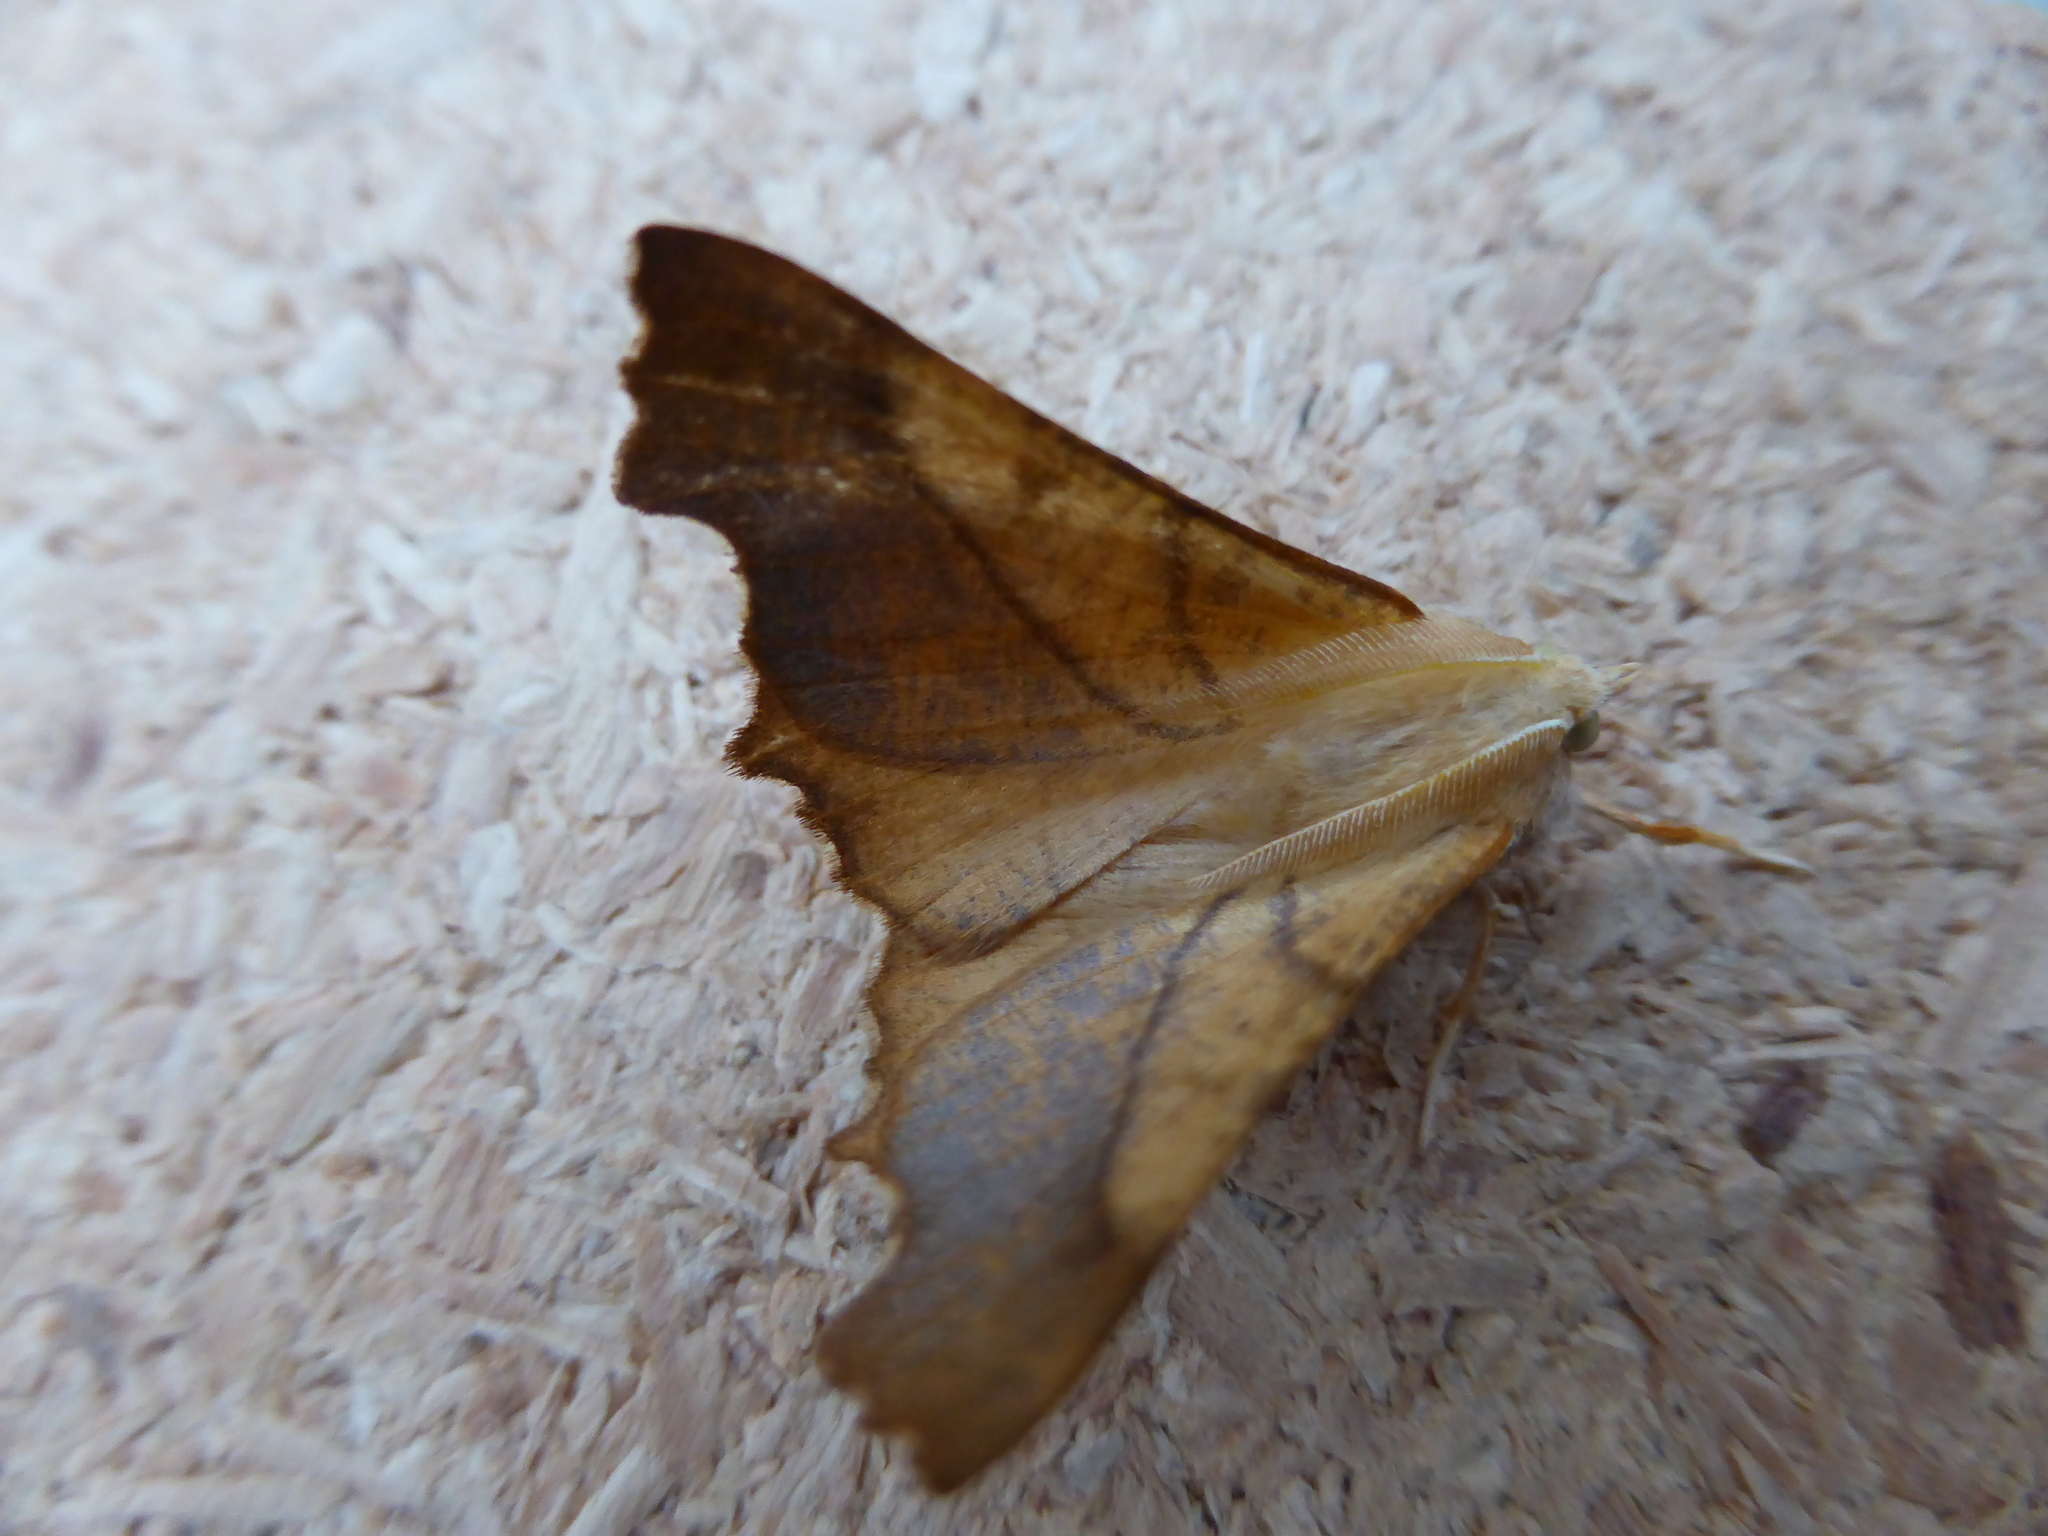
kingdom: Animalia
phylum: Arthropoda
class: Insecta
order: Lepidoptera
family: Geometridae
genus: Ennomos
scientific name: Ennomos fuscantaria
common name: Dusky thorn
